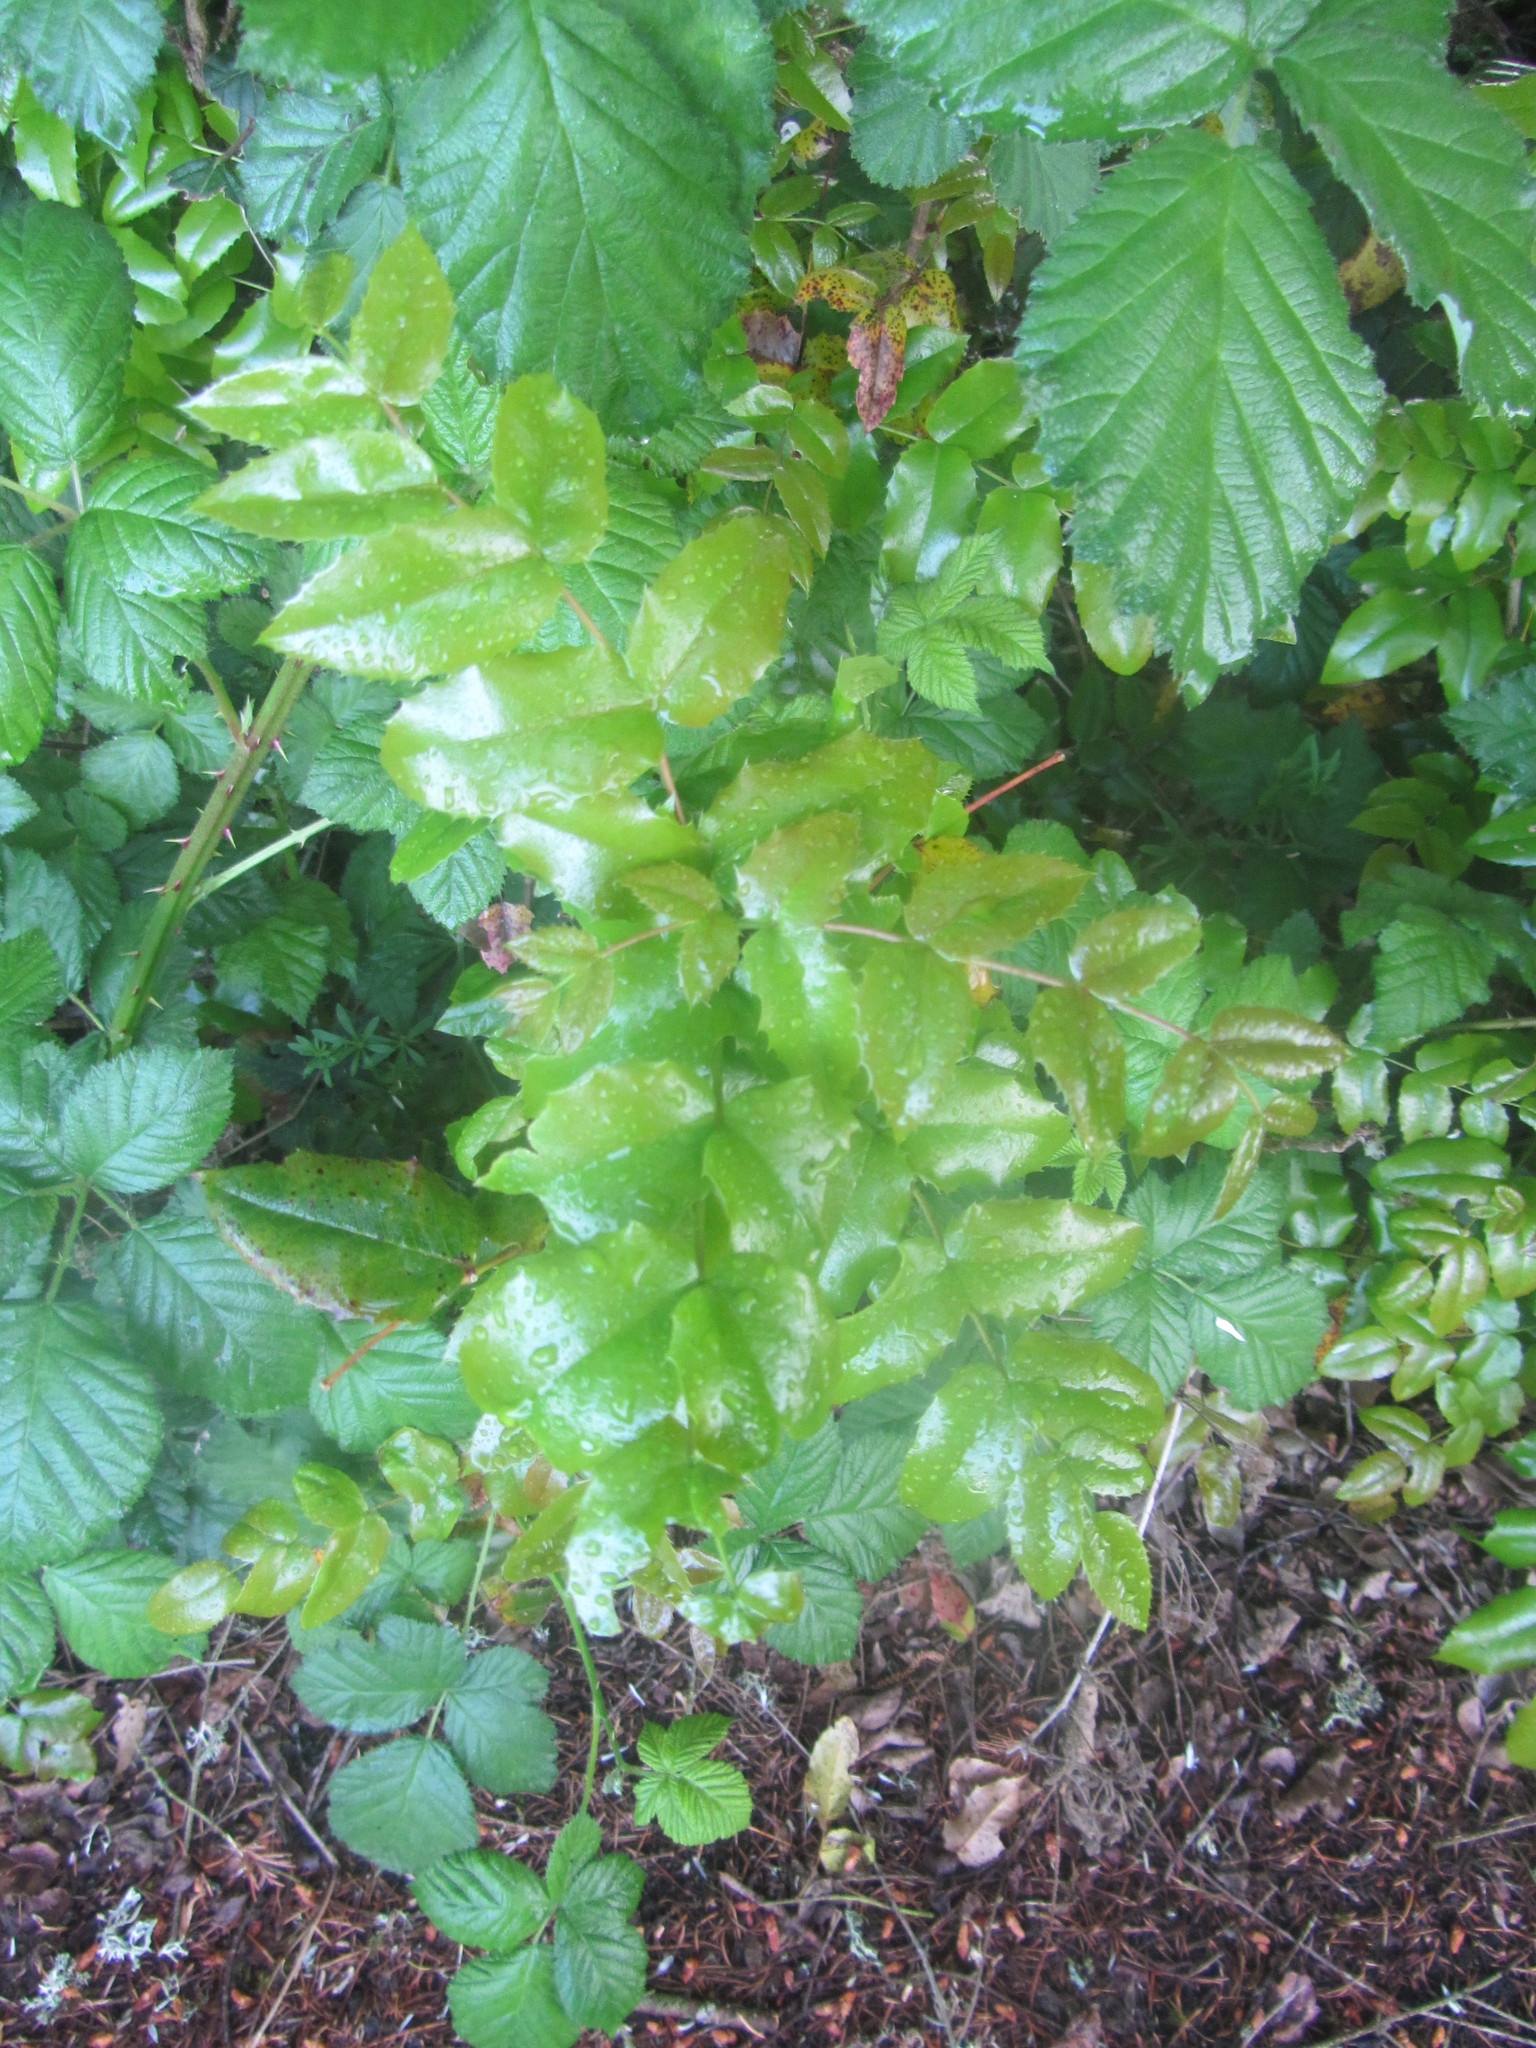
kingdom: Plantae
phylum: Tracheophyta
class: Magnoliopsida
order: Ranunculales
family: Berberidaceae
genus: Mahonia
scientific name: Mahonia aquifolium
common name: Oregon-grape
